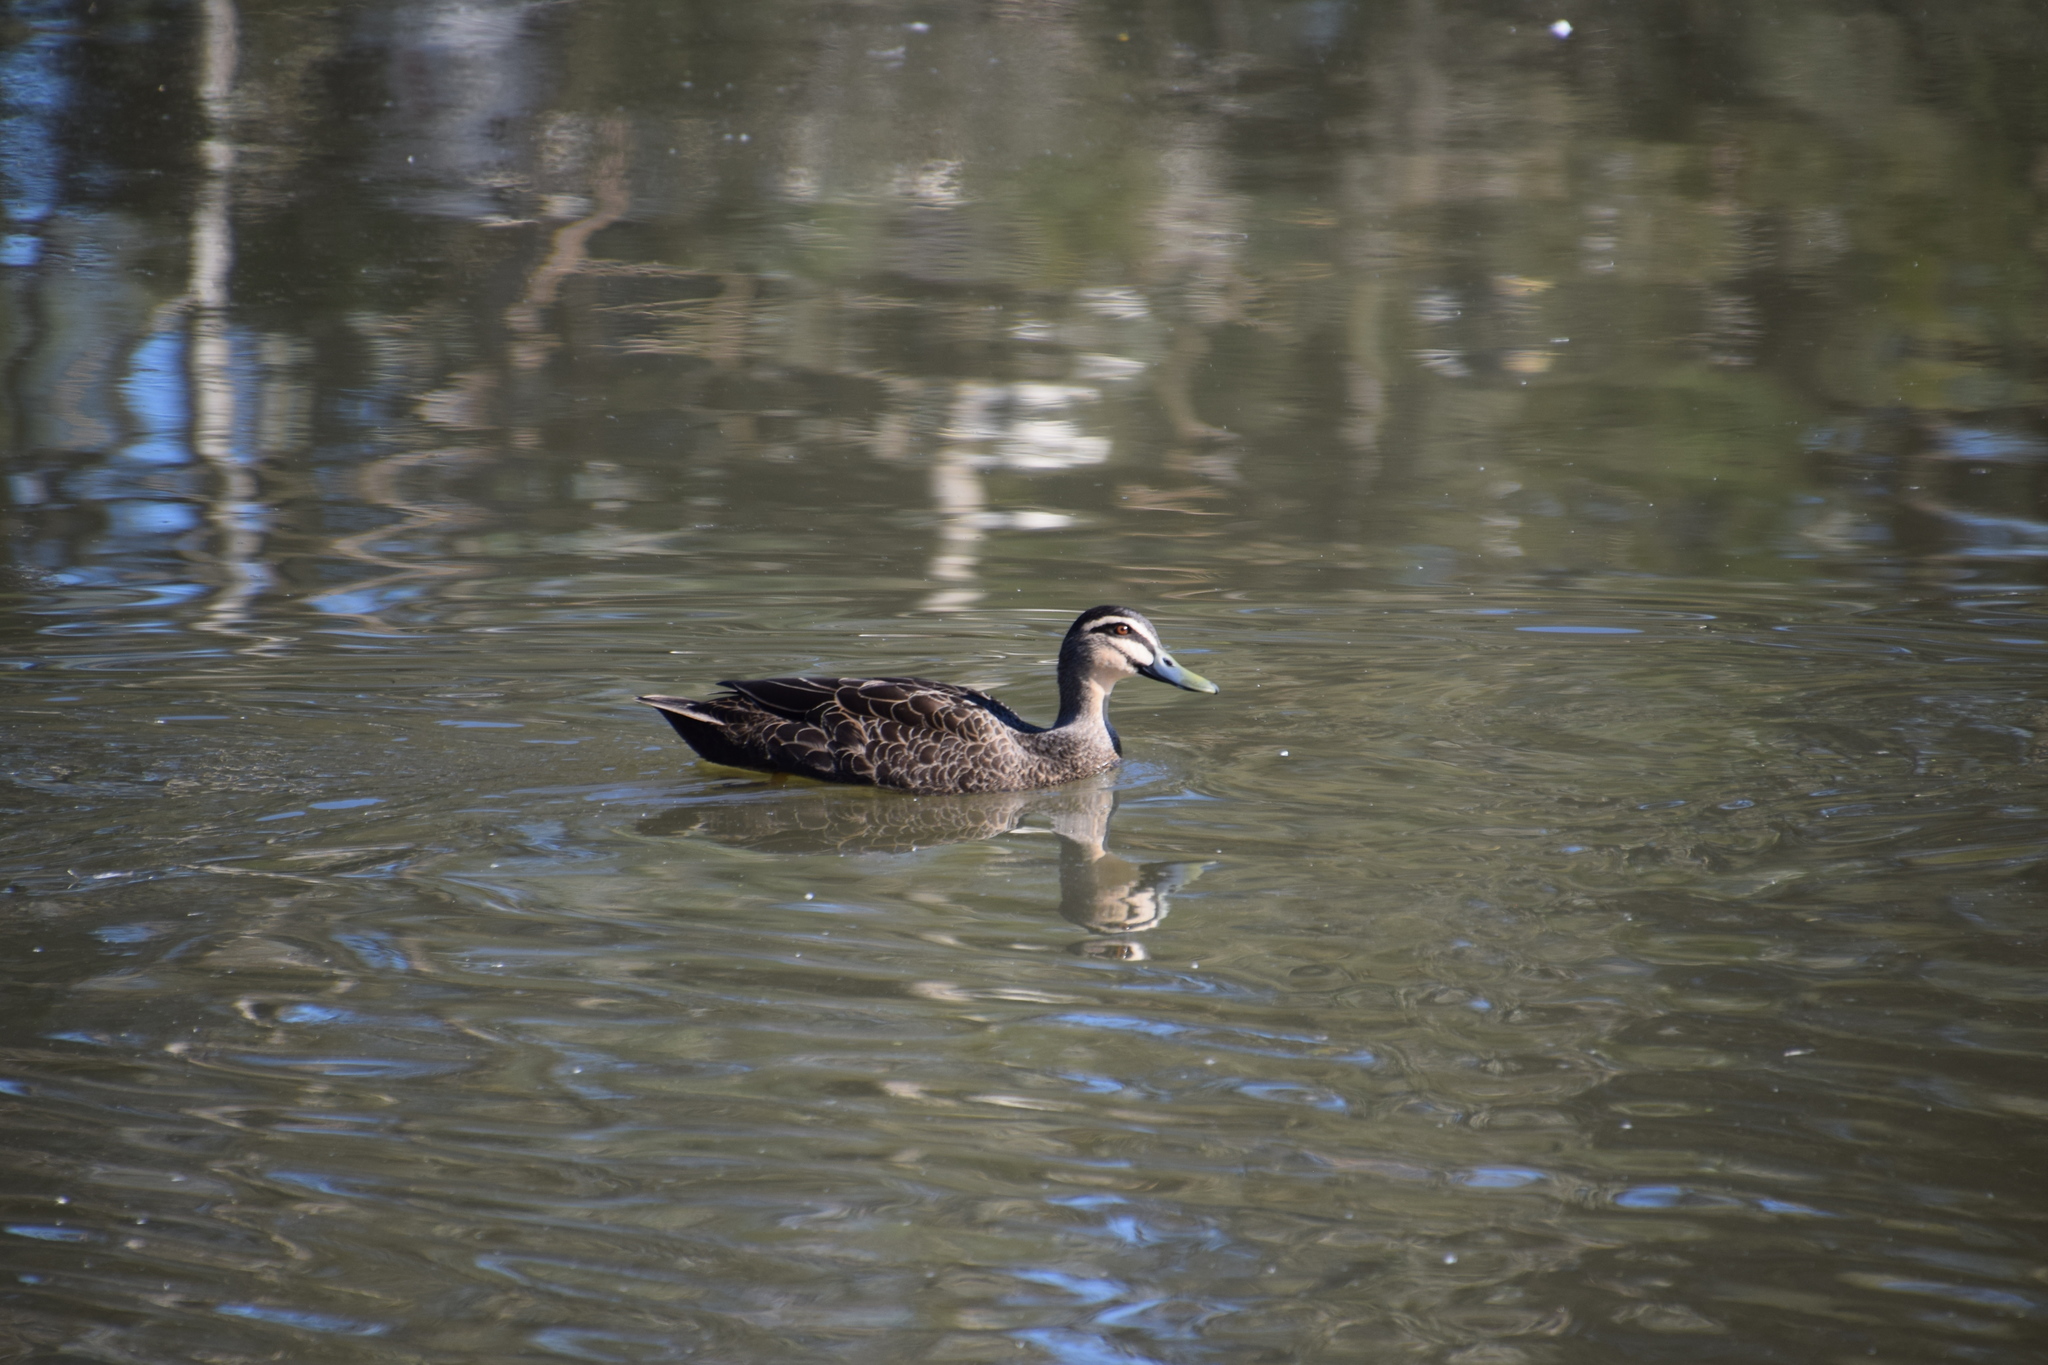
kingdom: Animalia
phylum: Chordata
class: Aves
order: Anseriformes
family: Anatidae
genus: Anas
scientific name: Anas superciliosa
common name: Pacific black duck
